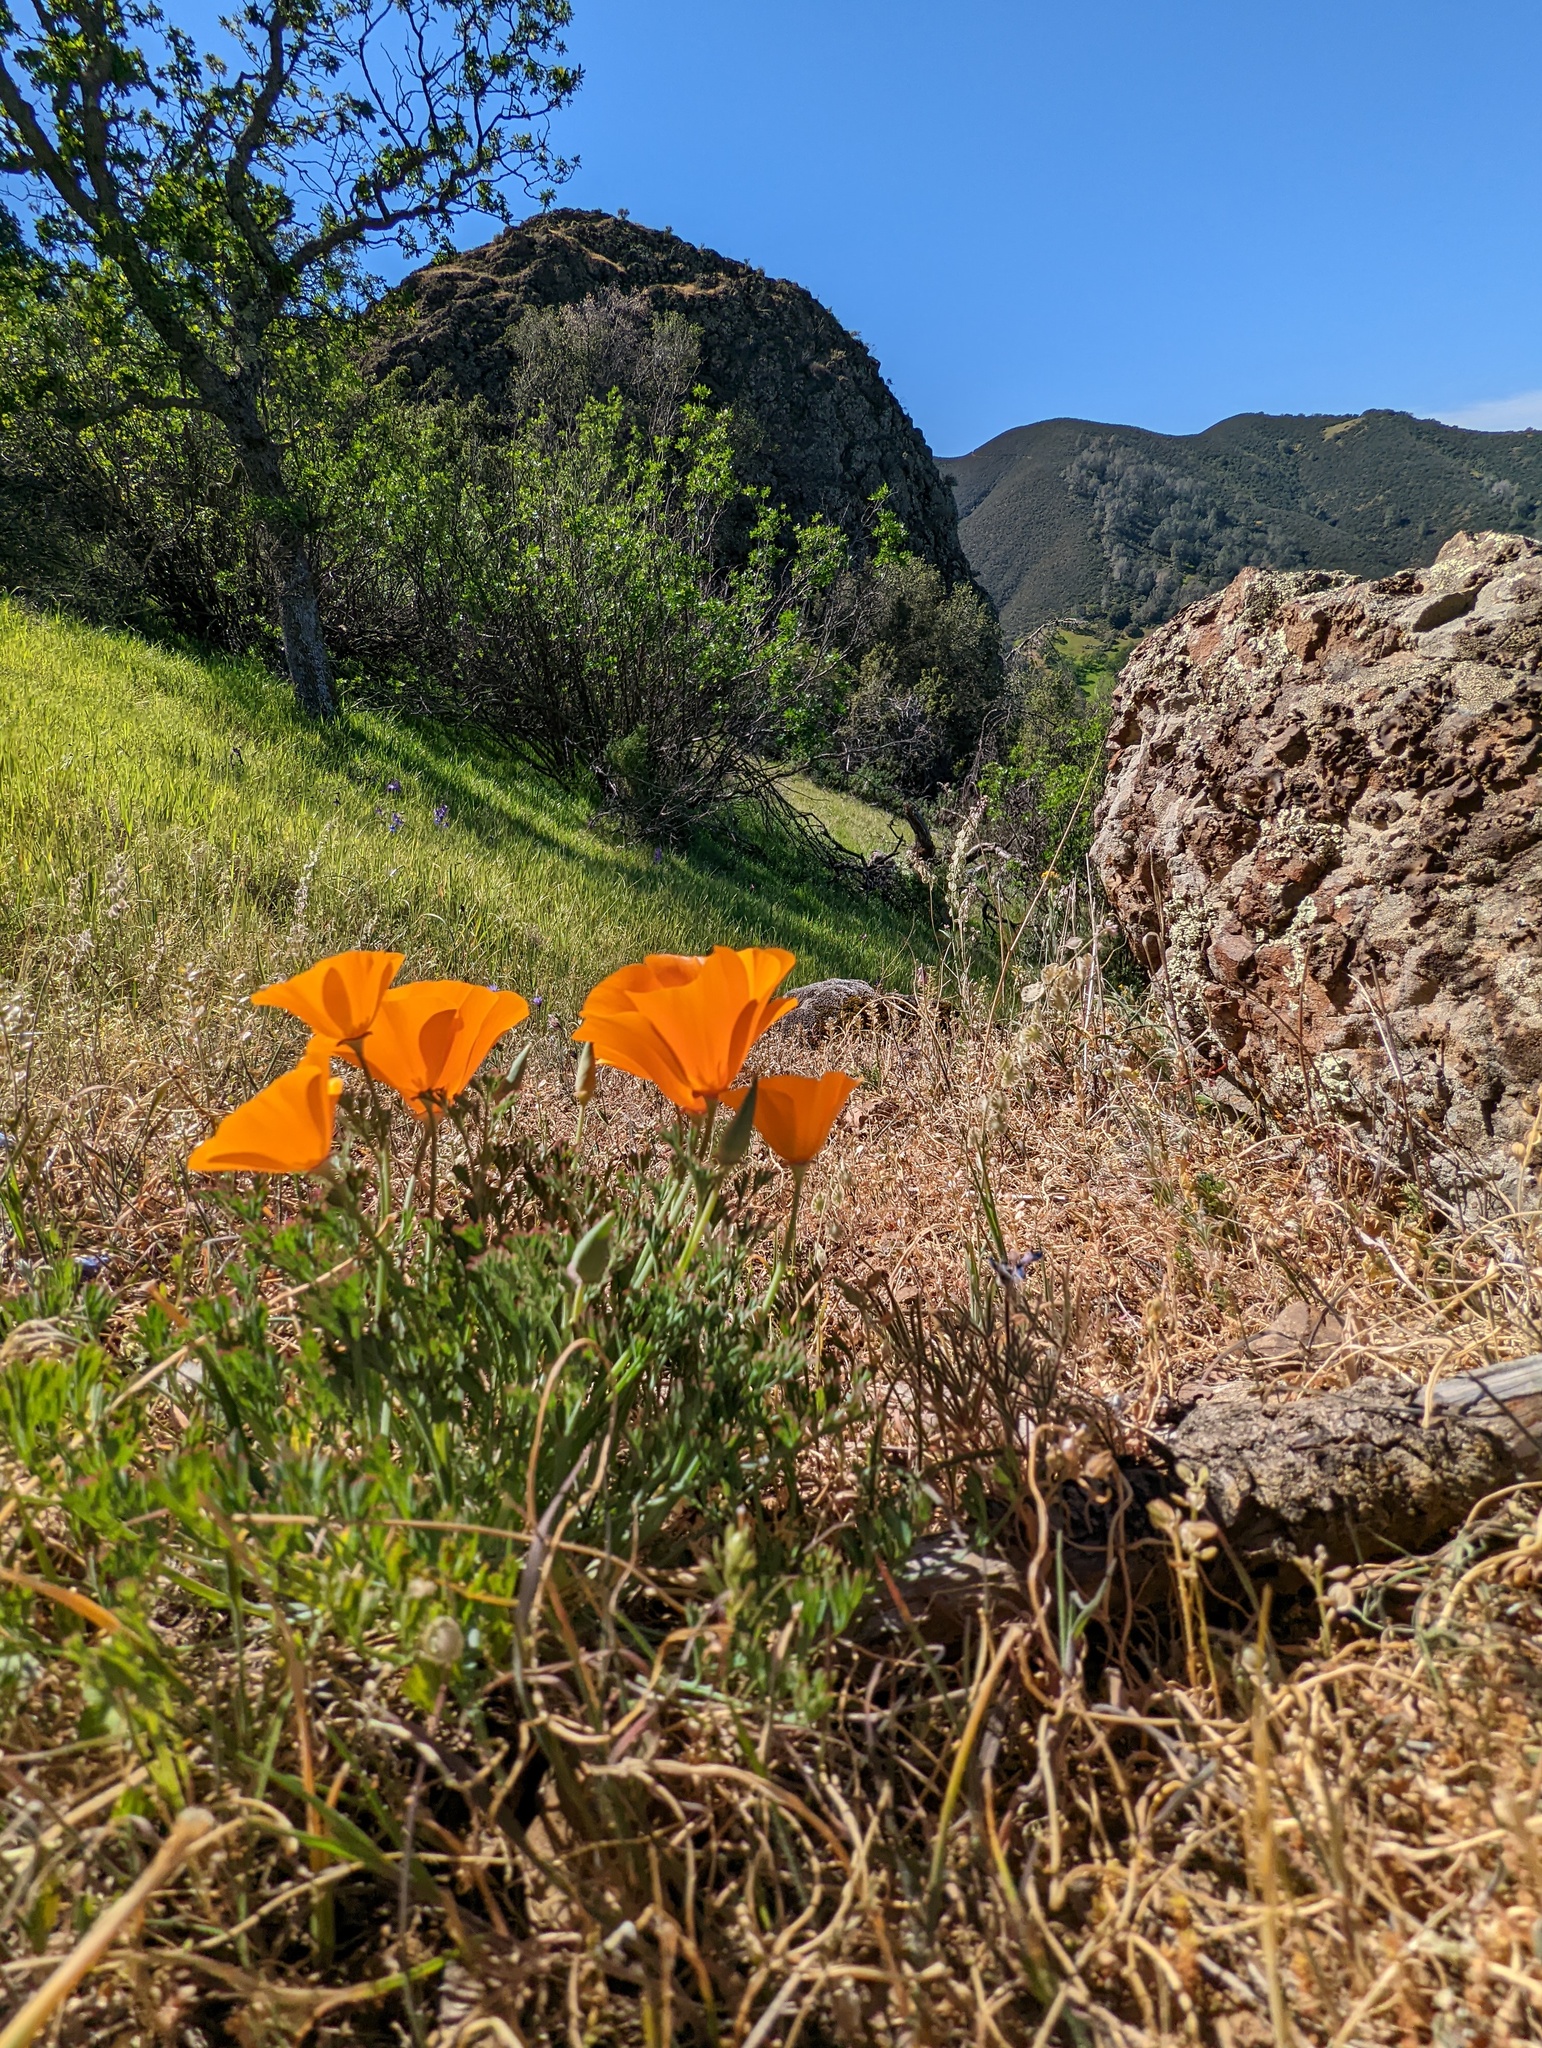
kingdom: Plantae
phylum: Tracheophyta
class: Magnoliopsida
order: Ranunculales
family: Papaveraceae
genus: Eschscholzia
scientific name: Eschscholzia californica
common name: California poppy
